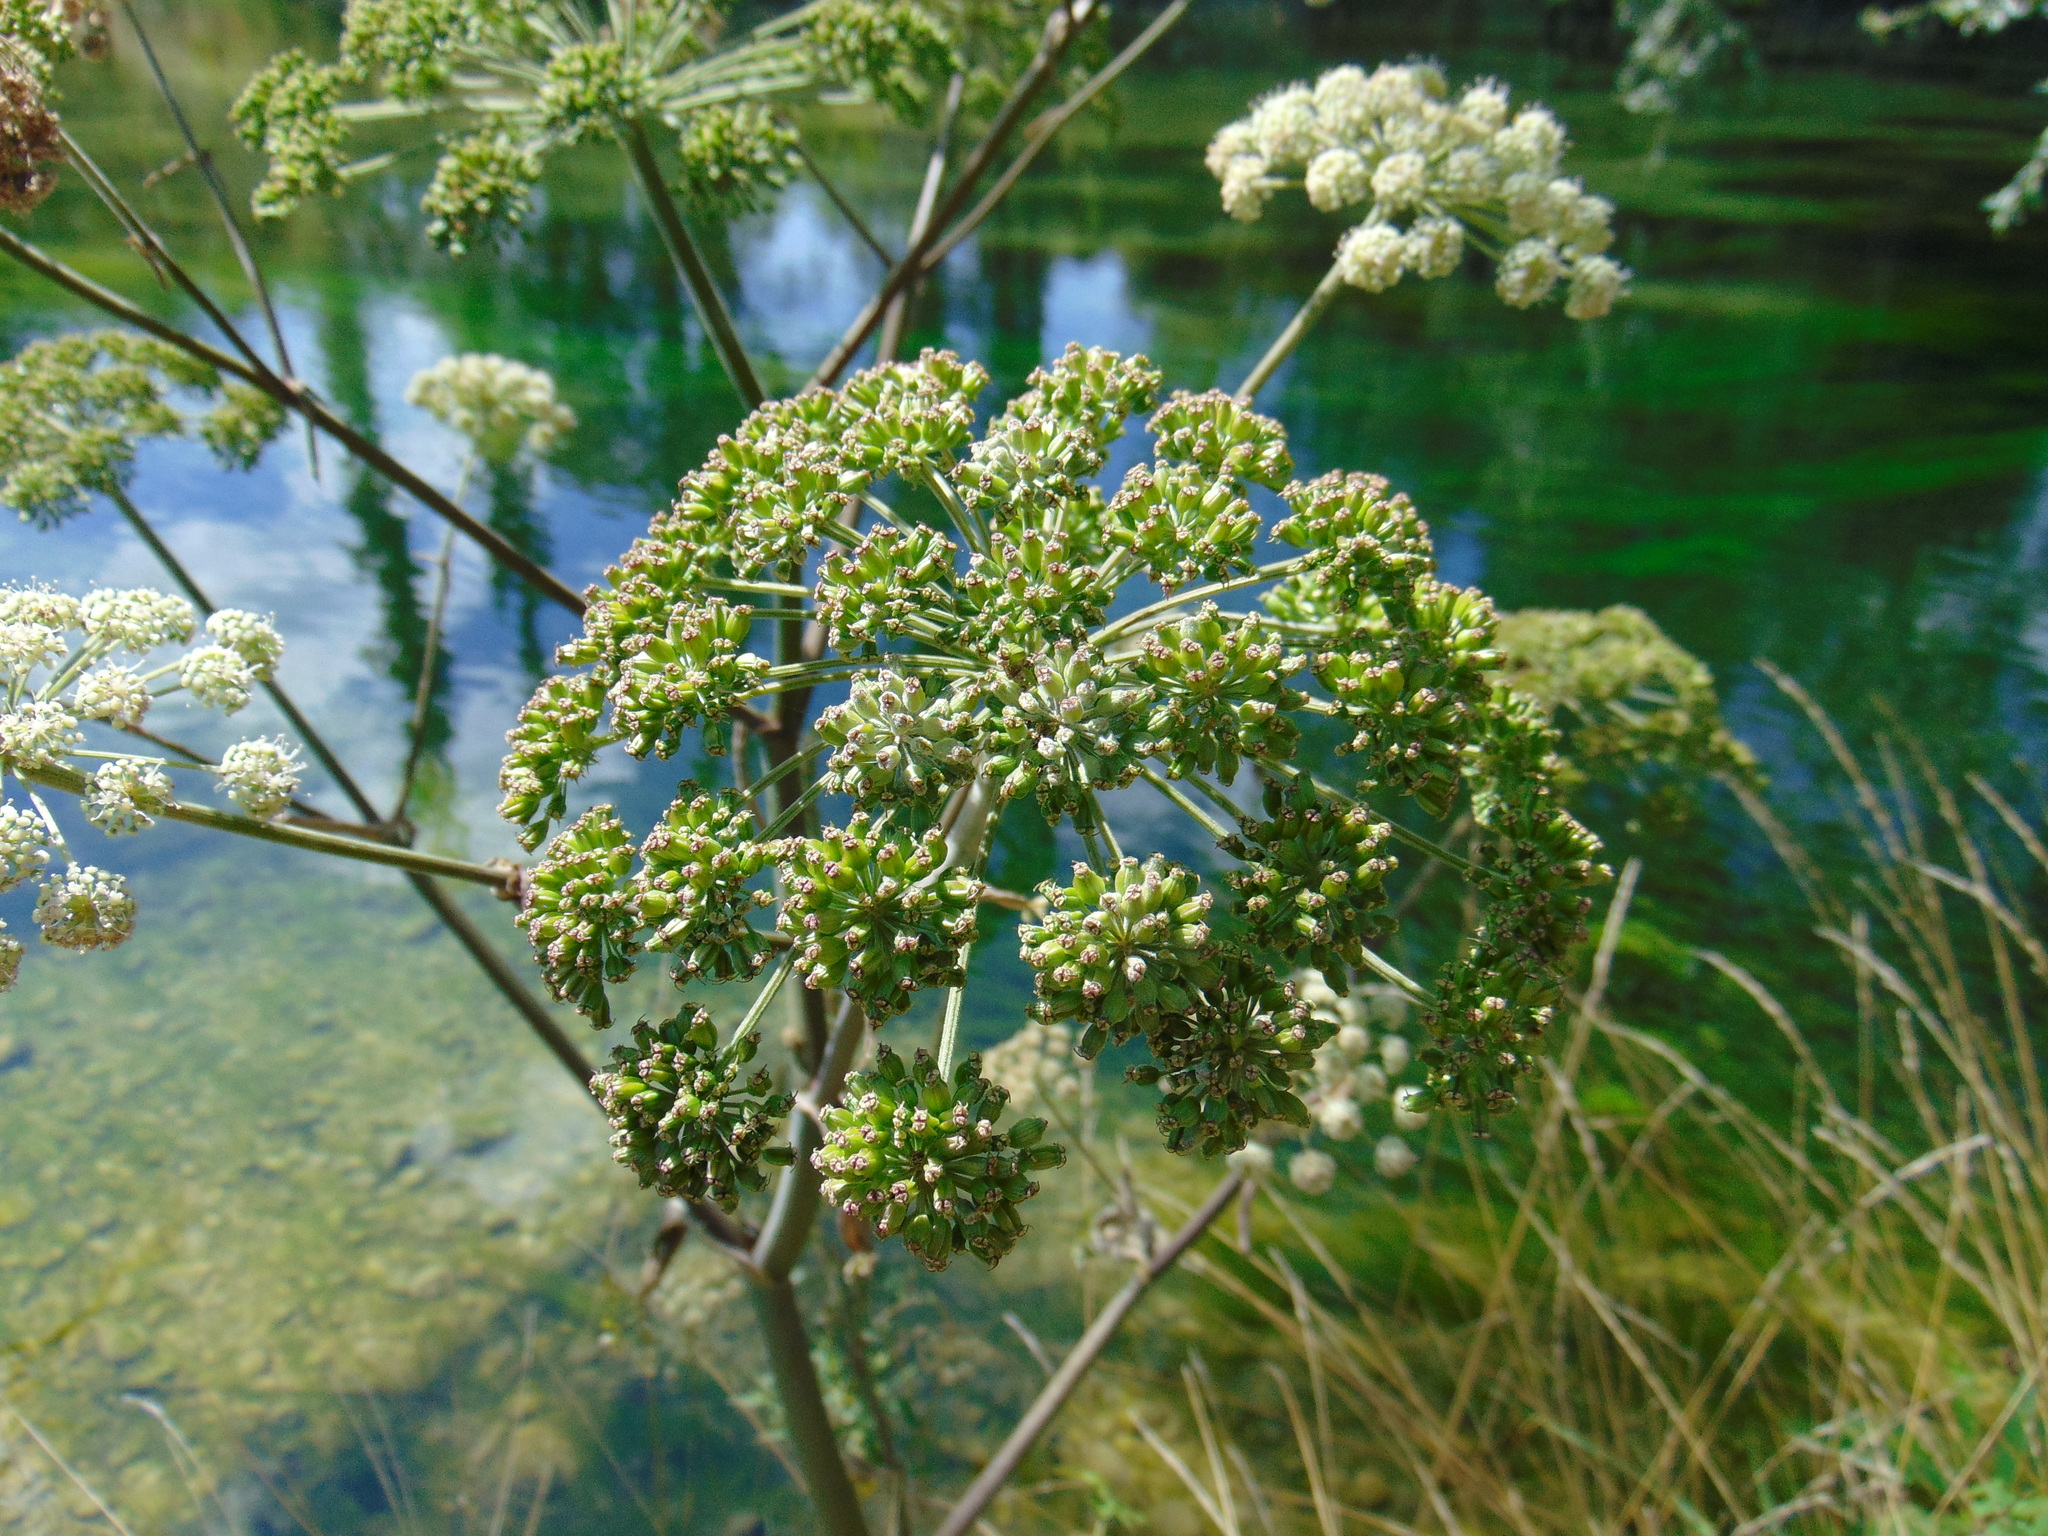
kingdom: Plantae
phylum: Tracheophyta
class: Magnoliopsida
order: Apiales
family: Apiaceae
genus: Angelica
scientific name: Angelica sylvestris
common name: Wild angelica
